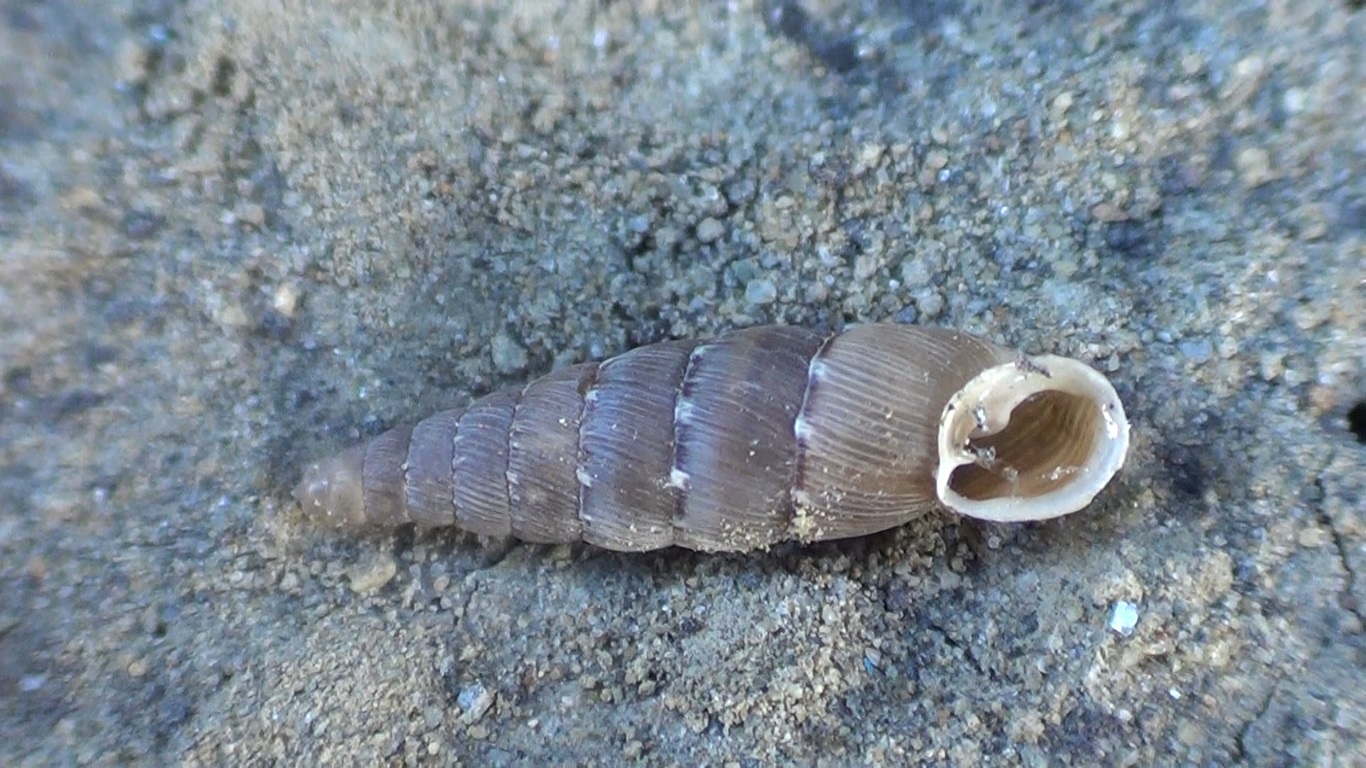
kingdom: Animalia
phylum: Mollusca
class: Gastropoda
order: Stylommatophora
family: Clausiliidae
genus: Papillifera
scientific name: Papillifera papillaris
